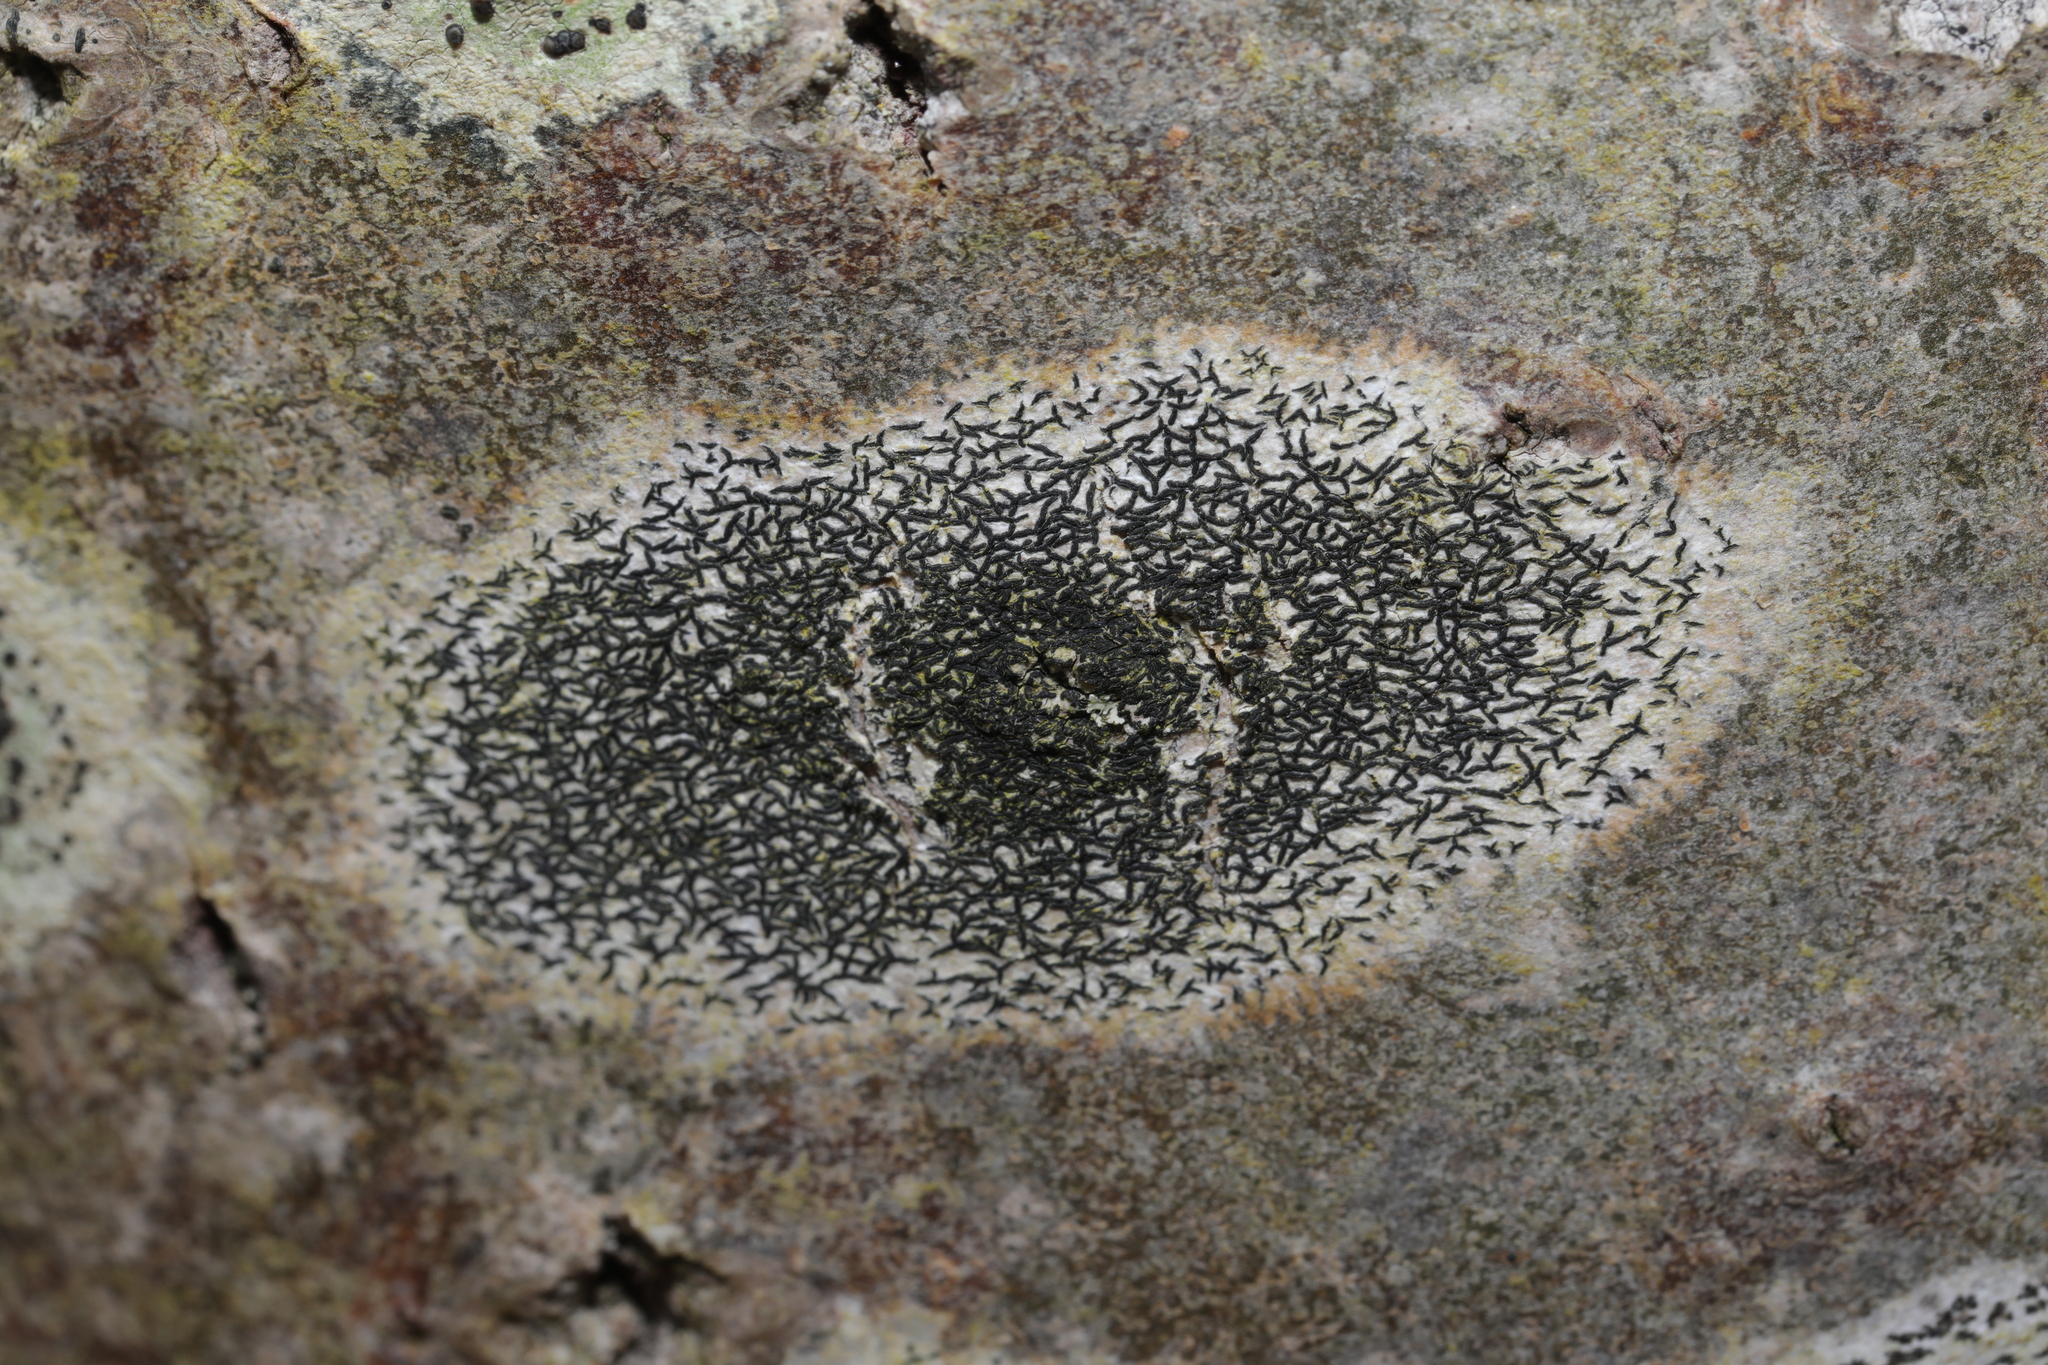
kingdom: Fungi
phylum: Ascomycota
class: Arthoniomycetes
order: Arthoniales
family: Arthoniaceae
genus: Arthonia
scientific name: Arthonia atra
